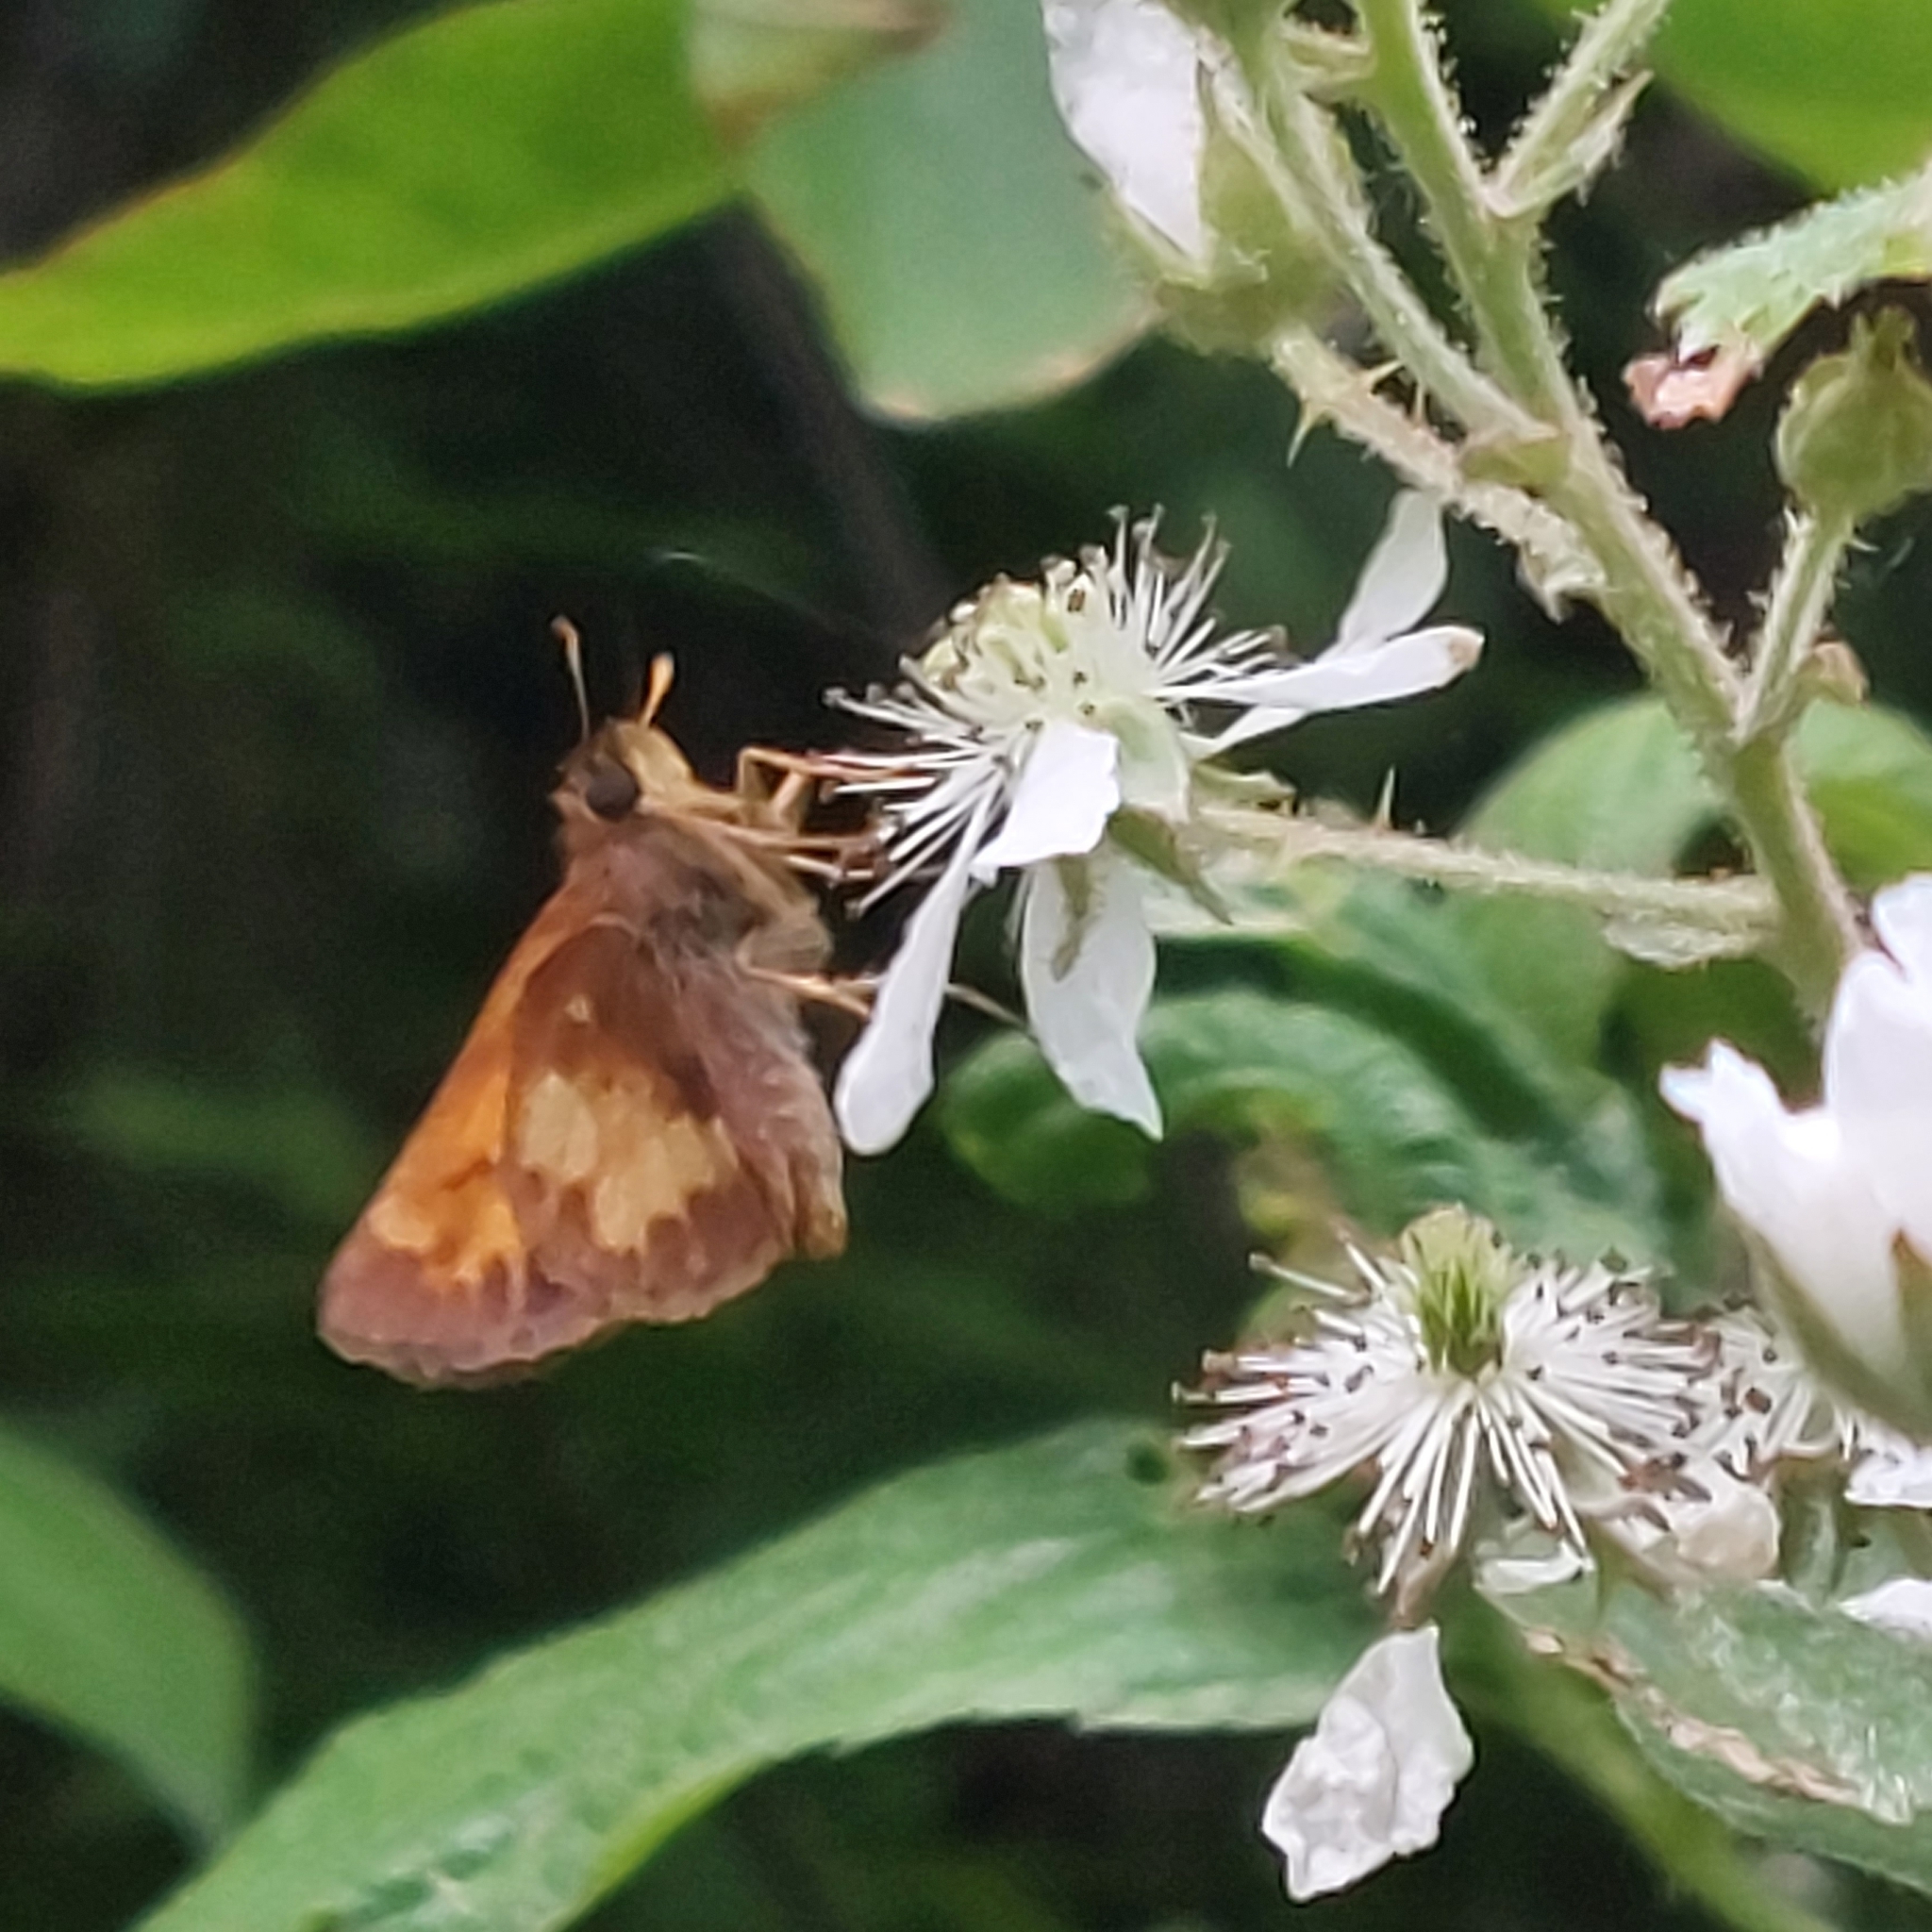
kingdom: Animalia
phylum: Arthropoda
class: Insecta
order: Lepidoptera
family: Hesperiidae
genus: Lon
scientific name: Lon hobomok
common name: Hobomok skipper
